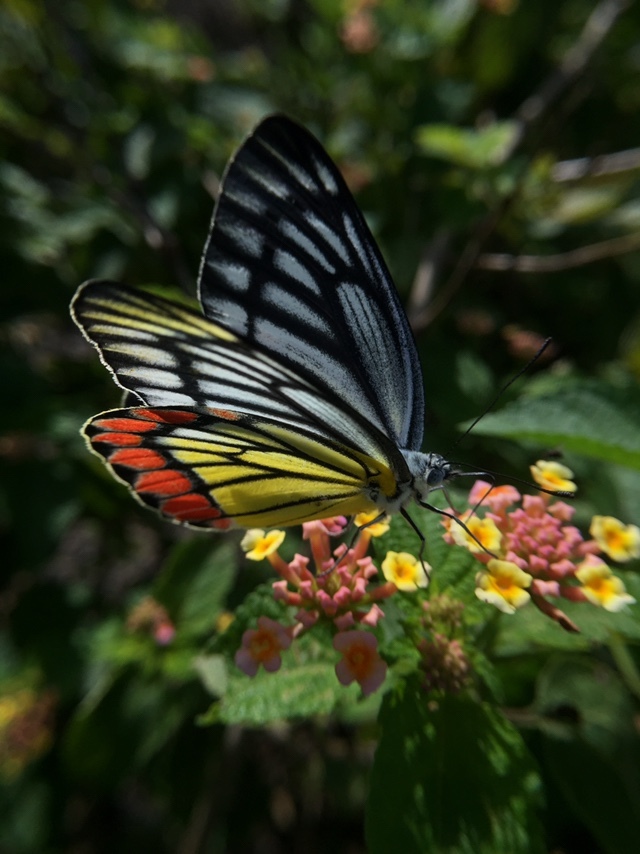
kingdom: Animalia
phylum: Arthropoda
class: Insecta
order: Lepidoptera
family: Pieridae
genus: Delias
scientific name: Delias eucharis
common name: Common jezebel
